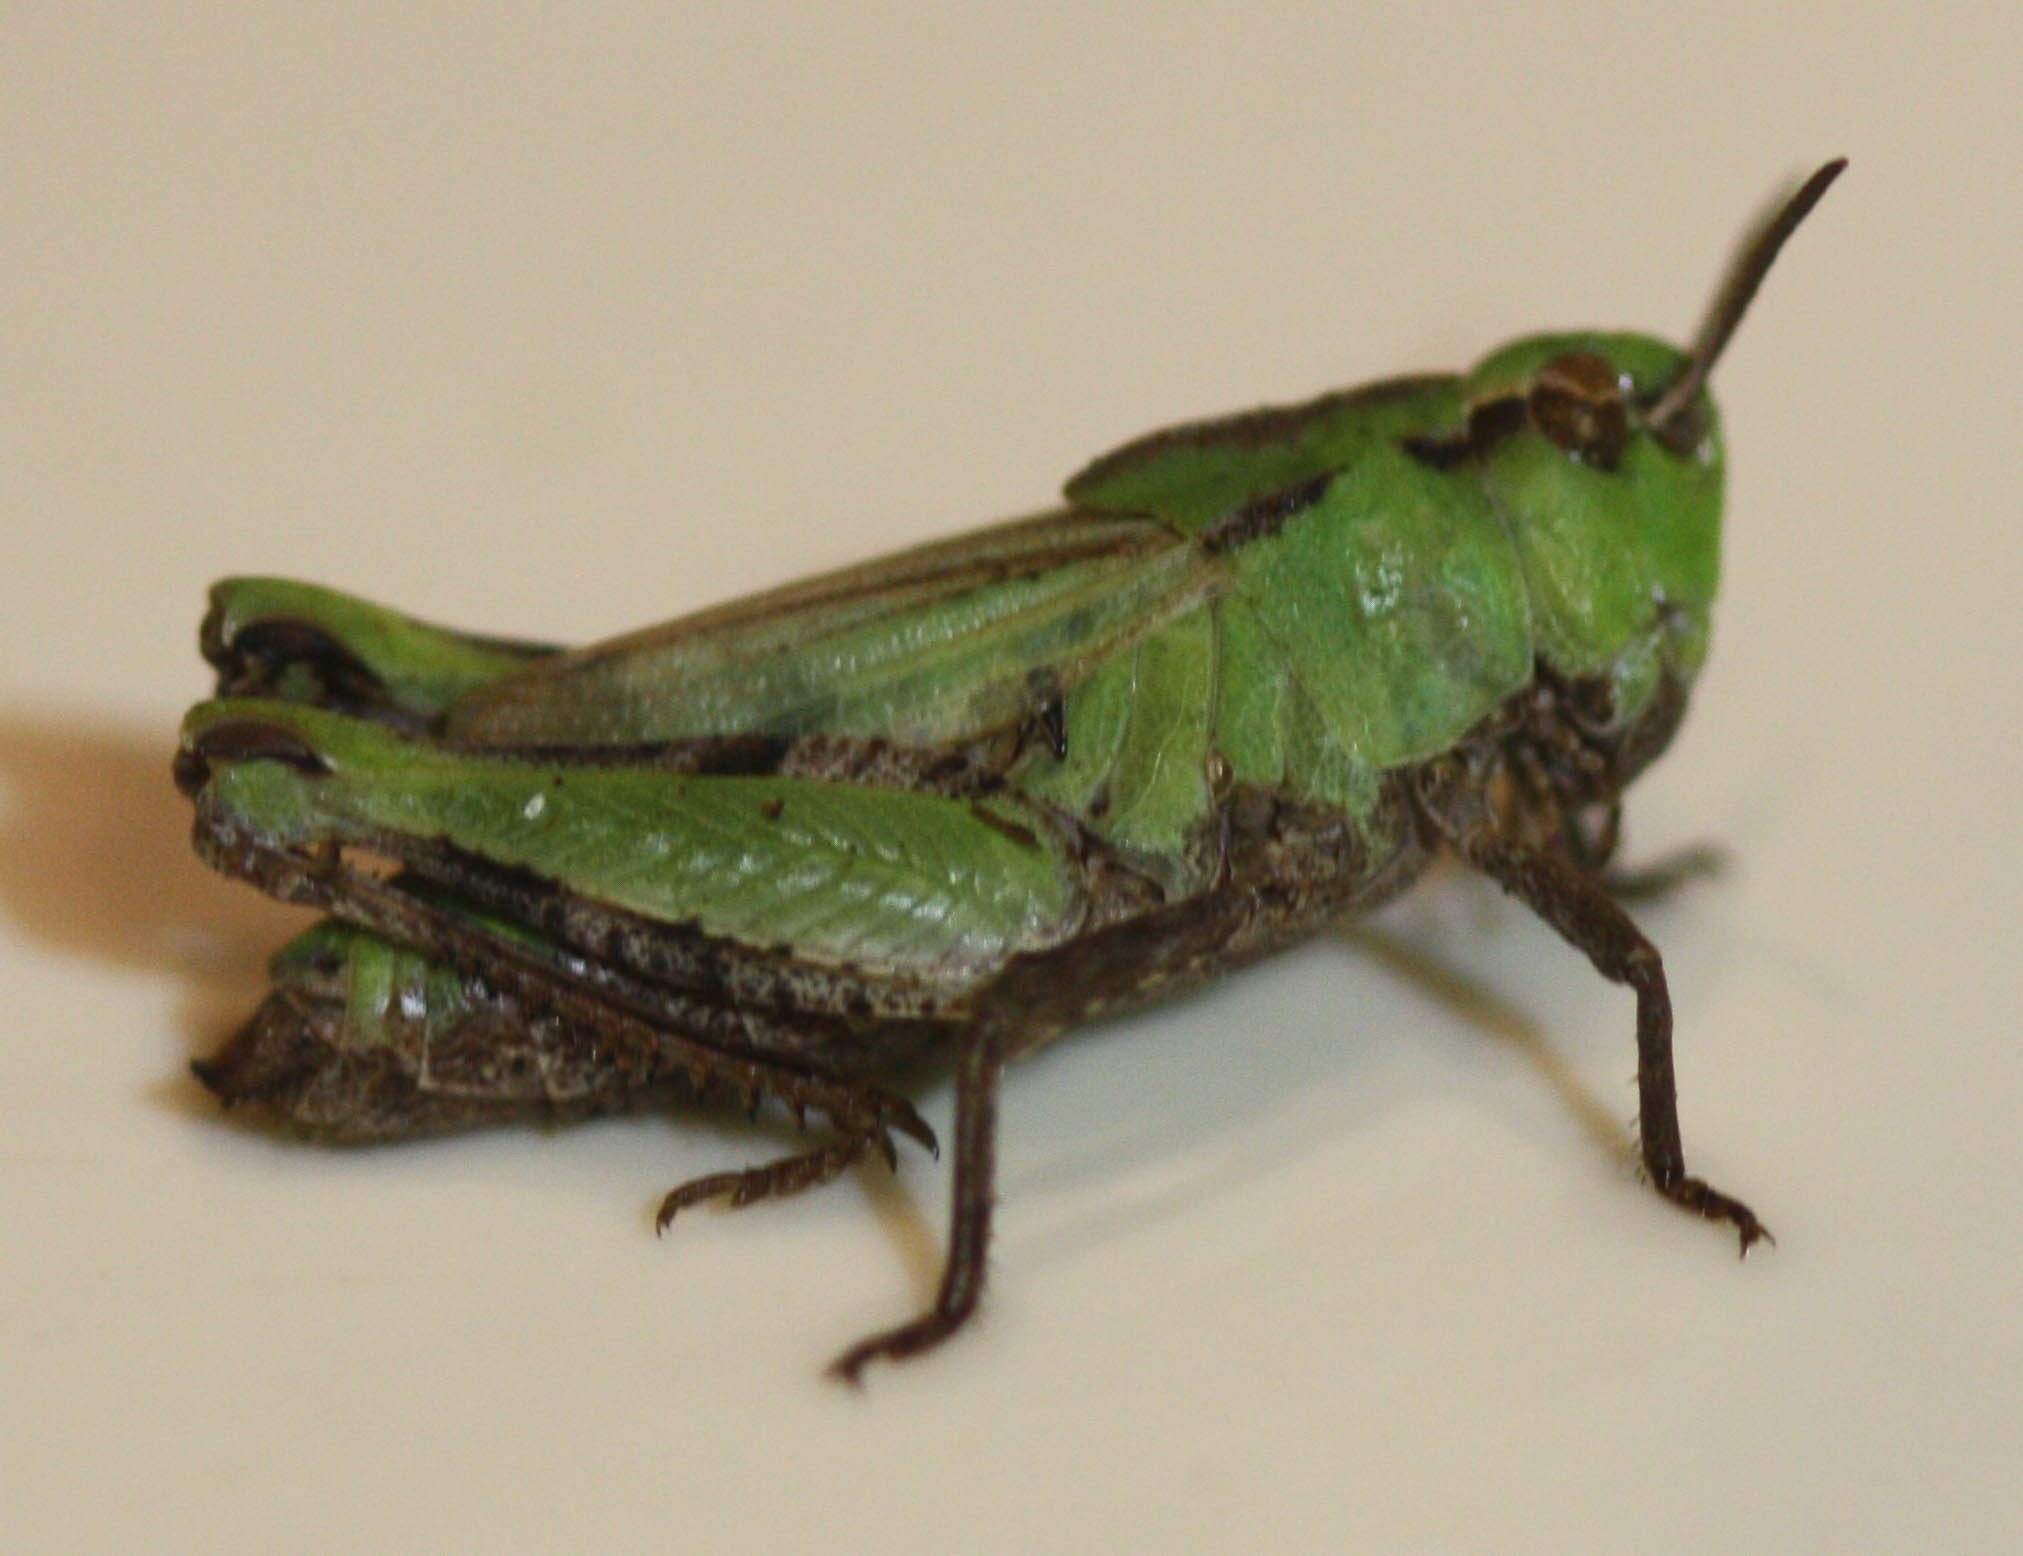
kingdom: Animalia
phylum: Arthropoda
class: Insecta
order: Orthoptera
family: Acrididae
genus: Chimarocephala
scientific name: Chimarocephala pacifica
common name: Painted meadow grasshopper
